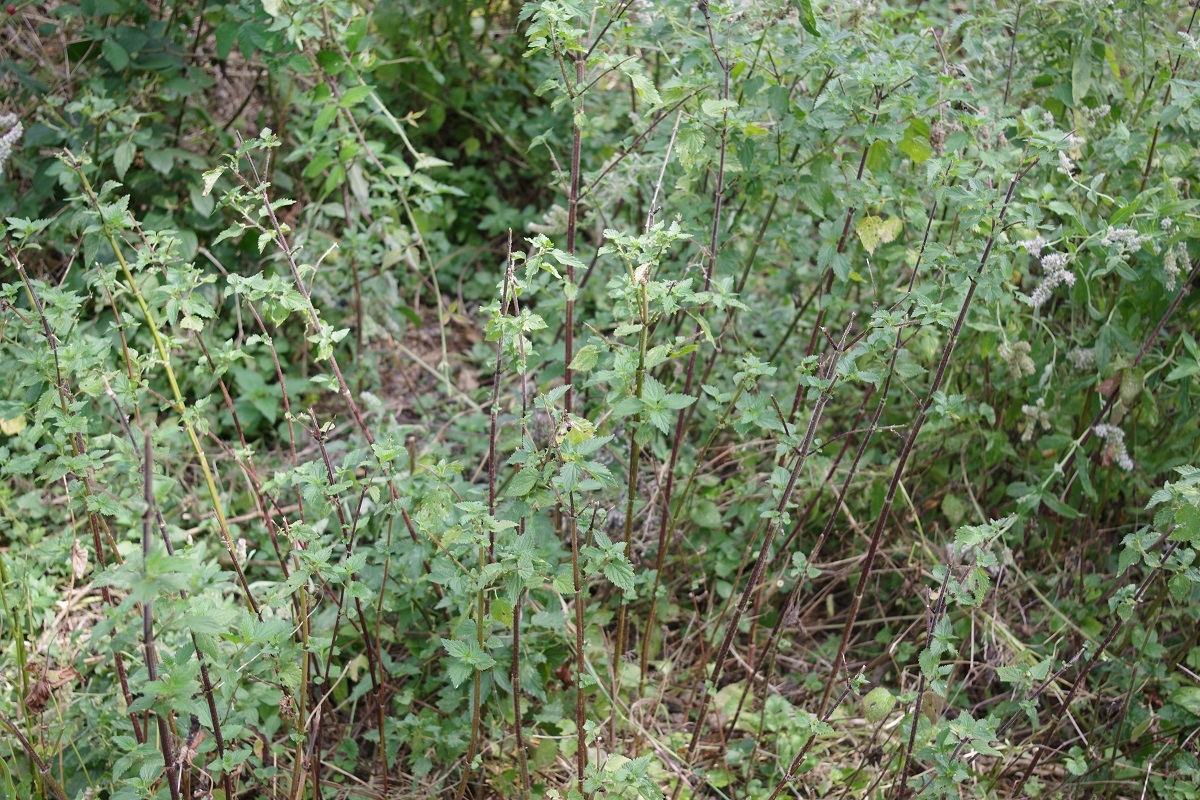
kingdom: Plantae
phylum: Tracheophyta
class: Magnoliopsida
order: Rosales
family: Urticaceae
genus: Urtica
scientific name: Urtica dioica
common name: Common nettle
